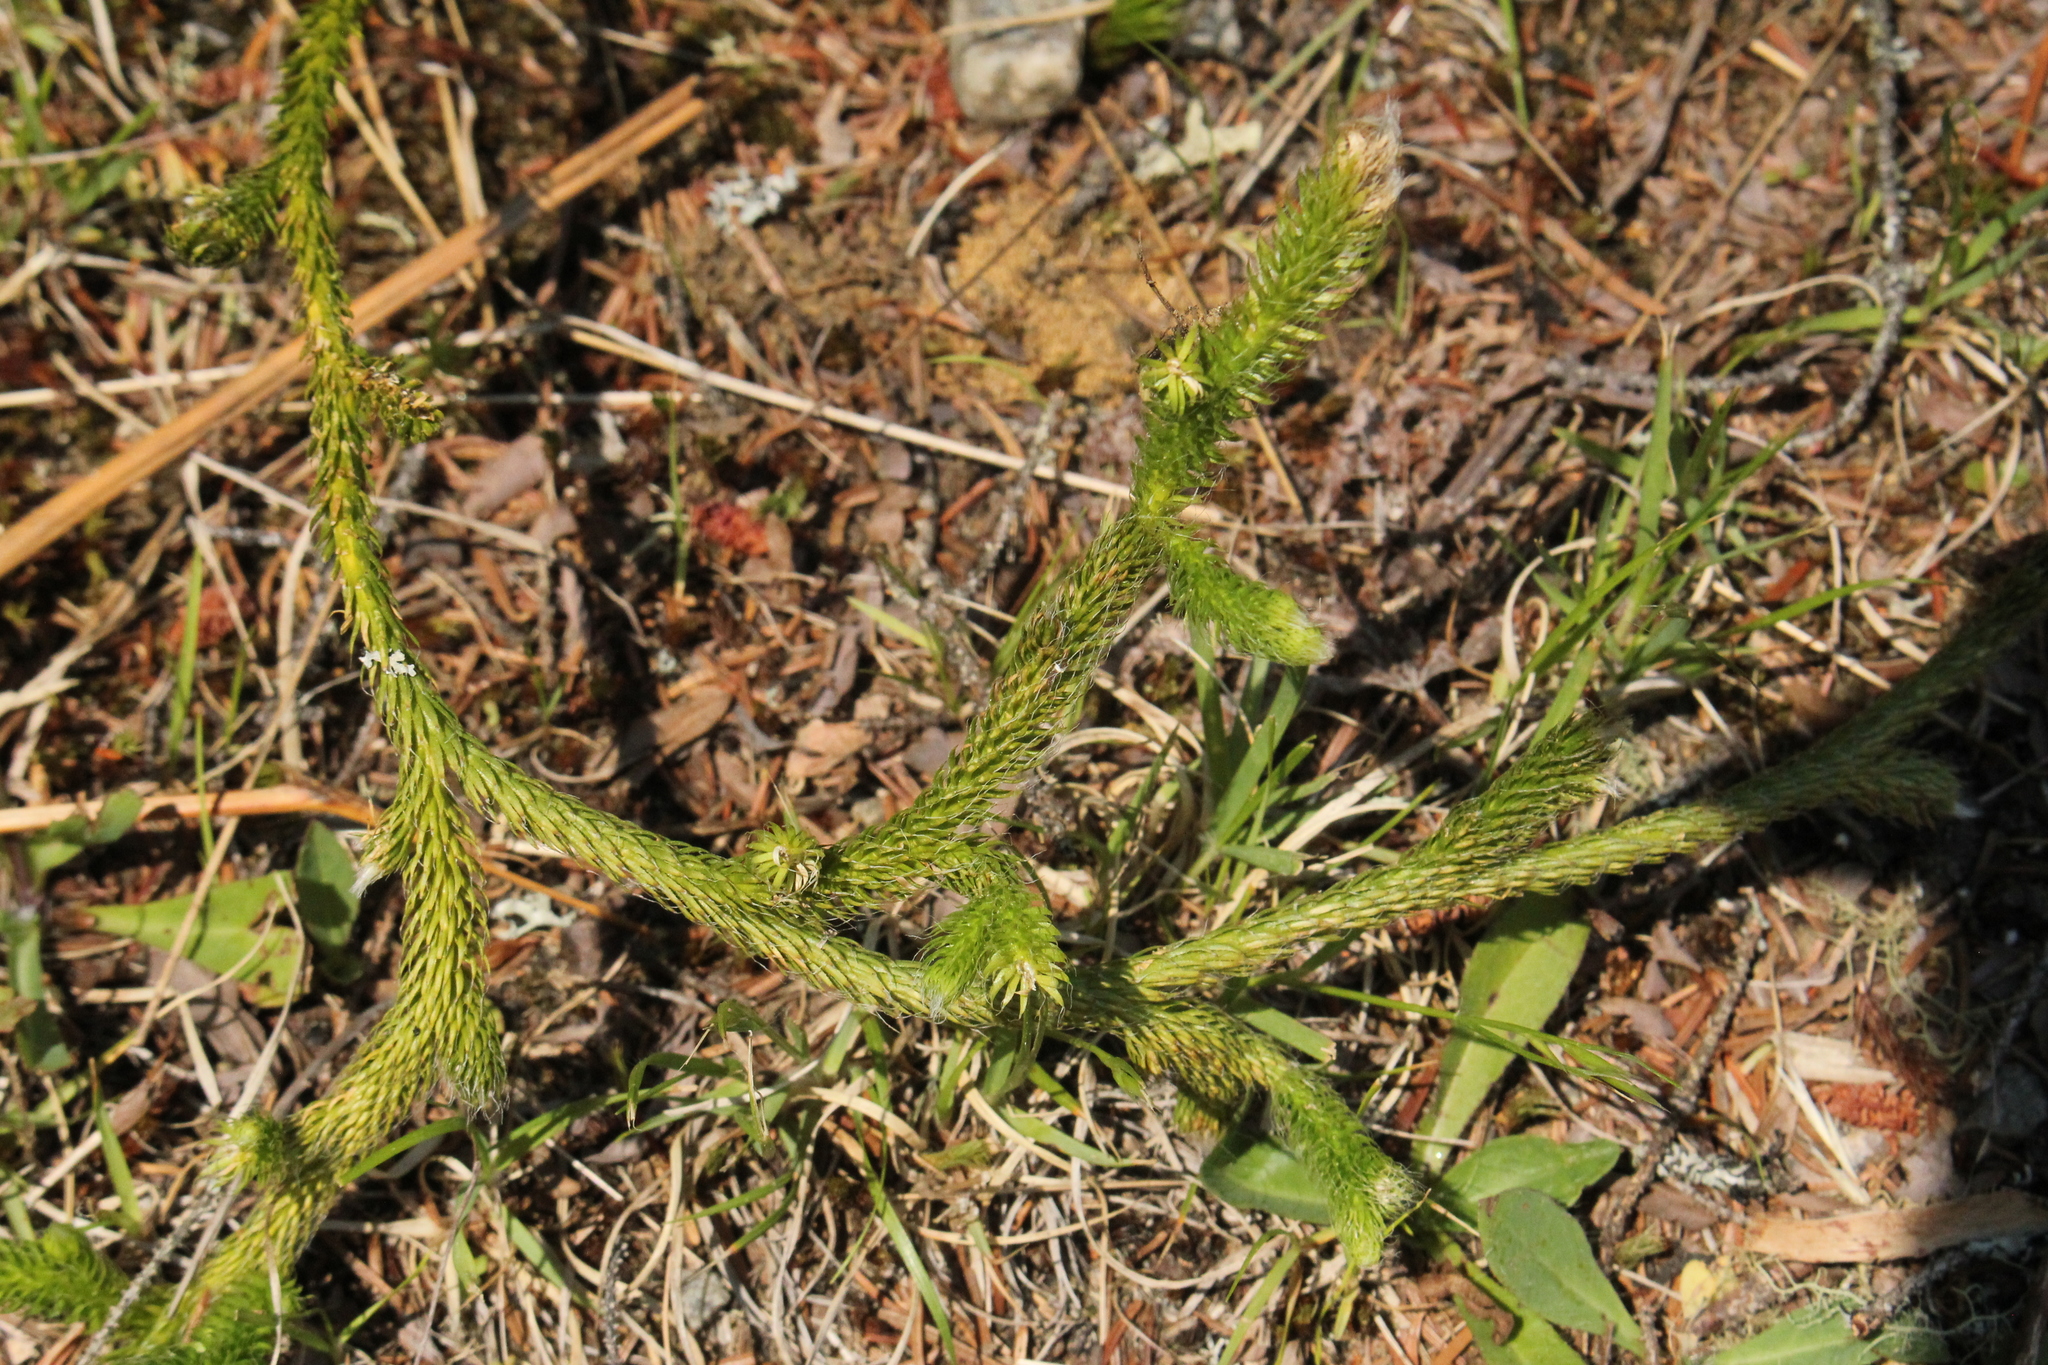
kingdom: Plantae
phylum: Tracheophyta
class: Lycopodiopsida
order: Lycopodiales
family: Lycopodiaceae
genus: Lycopodium
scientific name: Lycopodium clavatum
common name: Stag's-horn clubmoss
